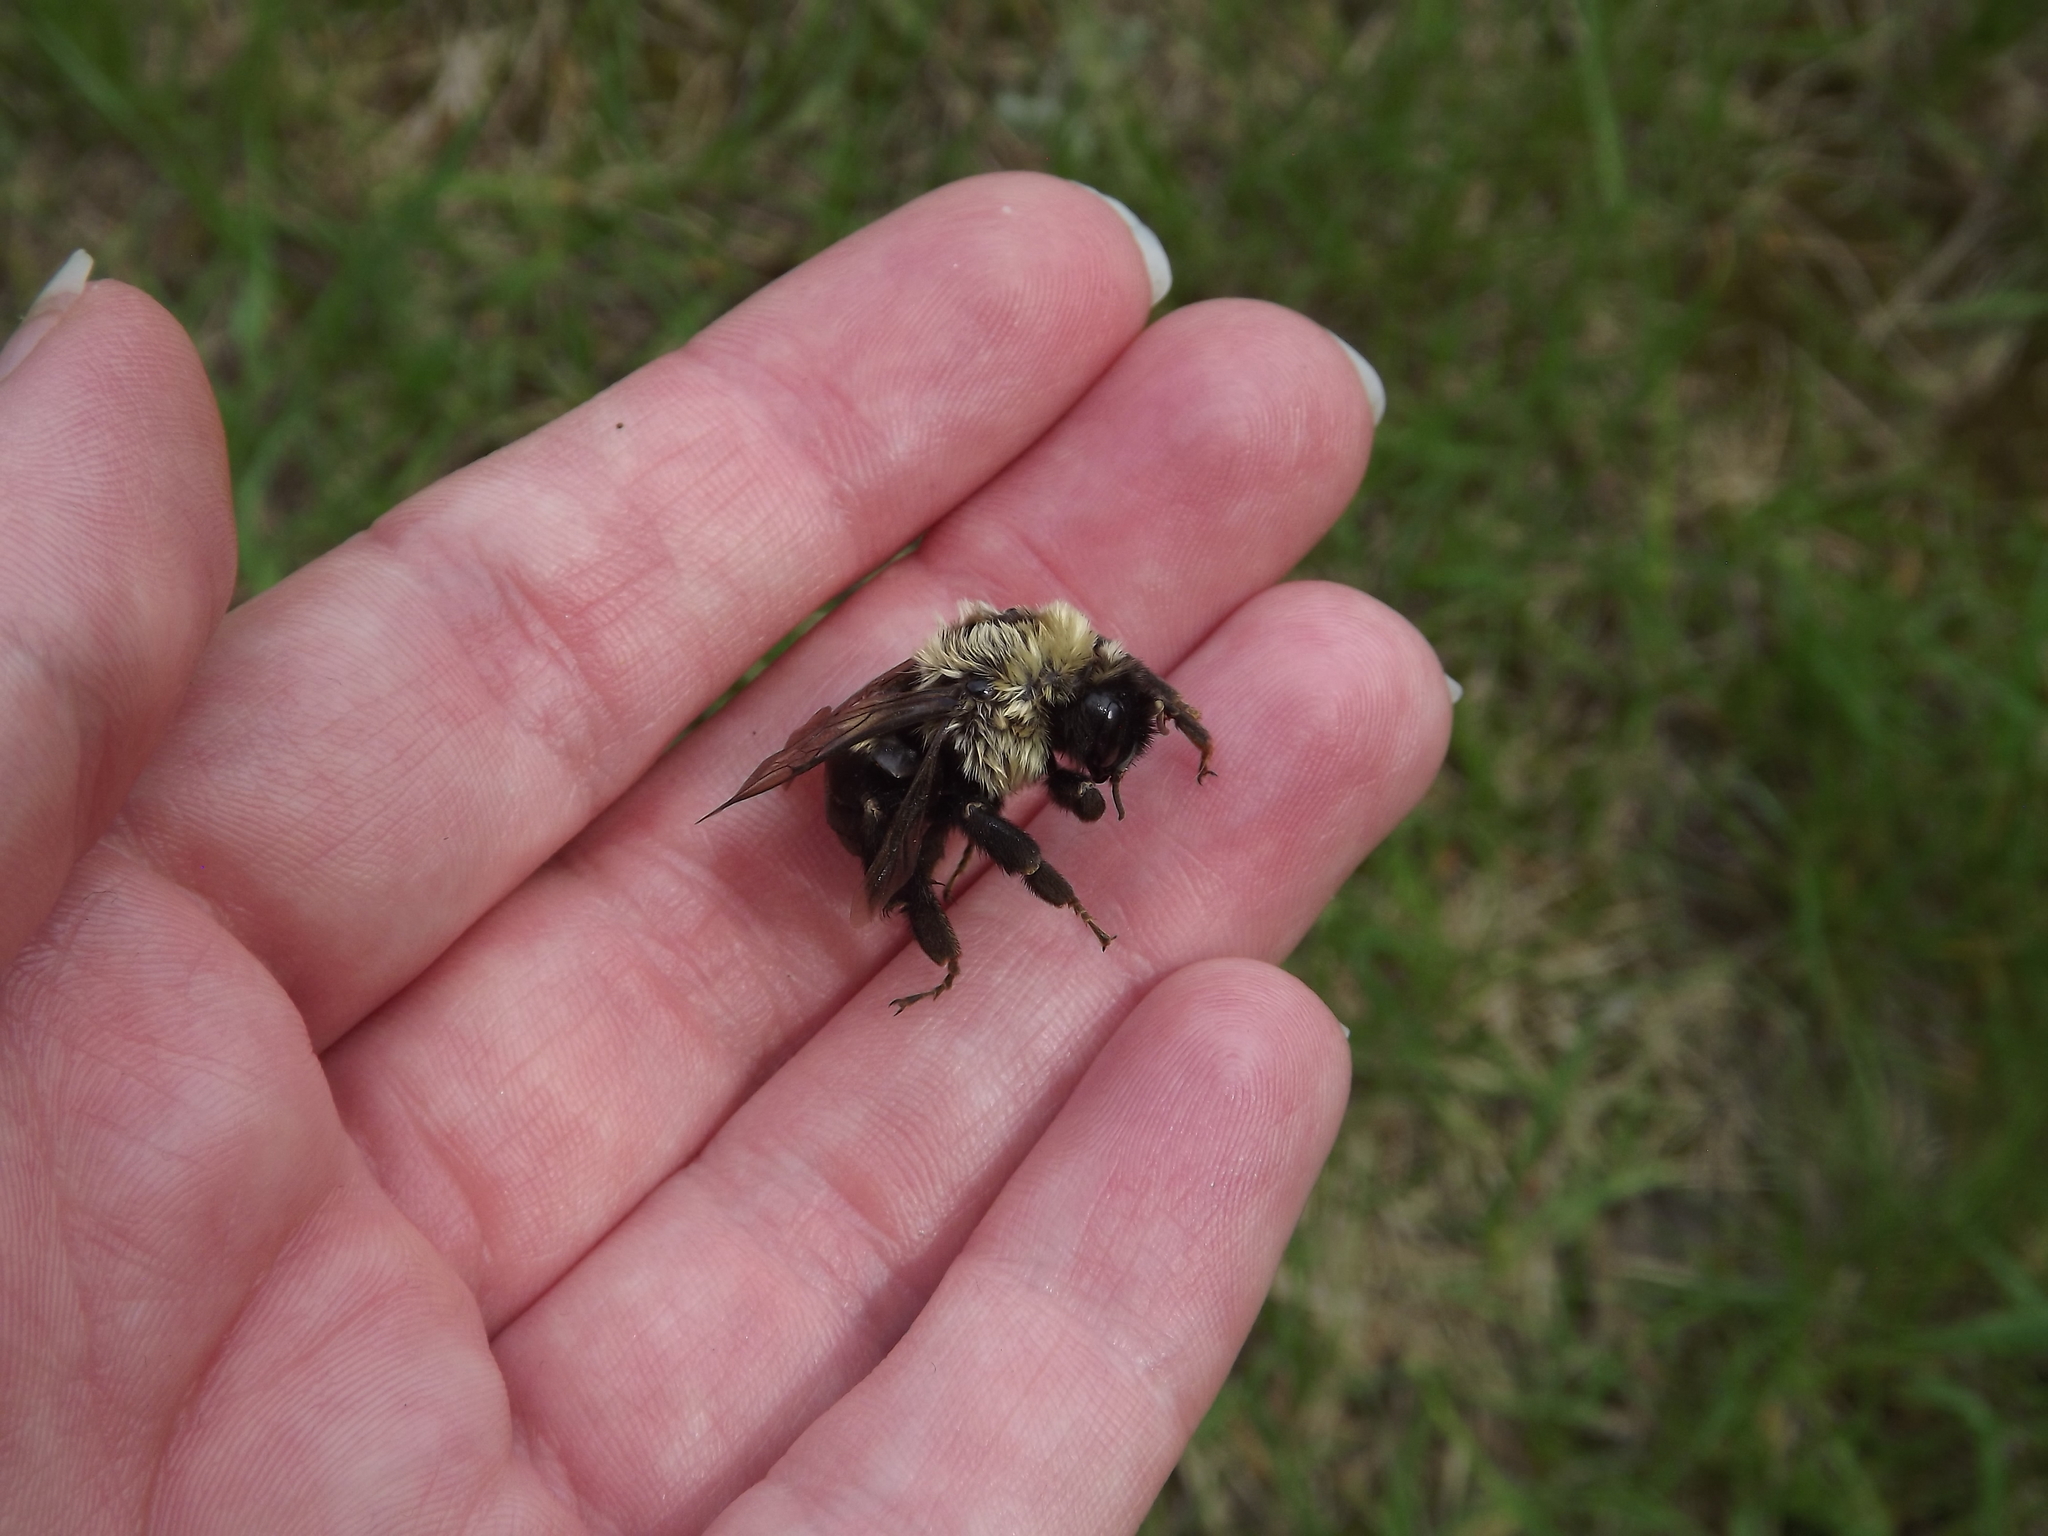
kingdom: Animalia
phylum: Arthropoda
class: Insecta
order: Hymenoptera
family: Apidae
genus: Bombus
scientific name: Bombus impatiens
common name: Common eastern bumble bee
